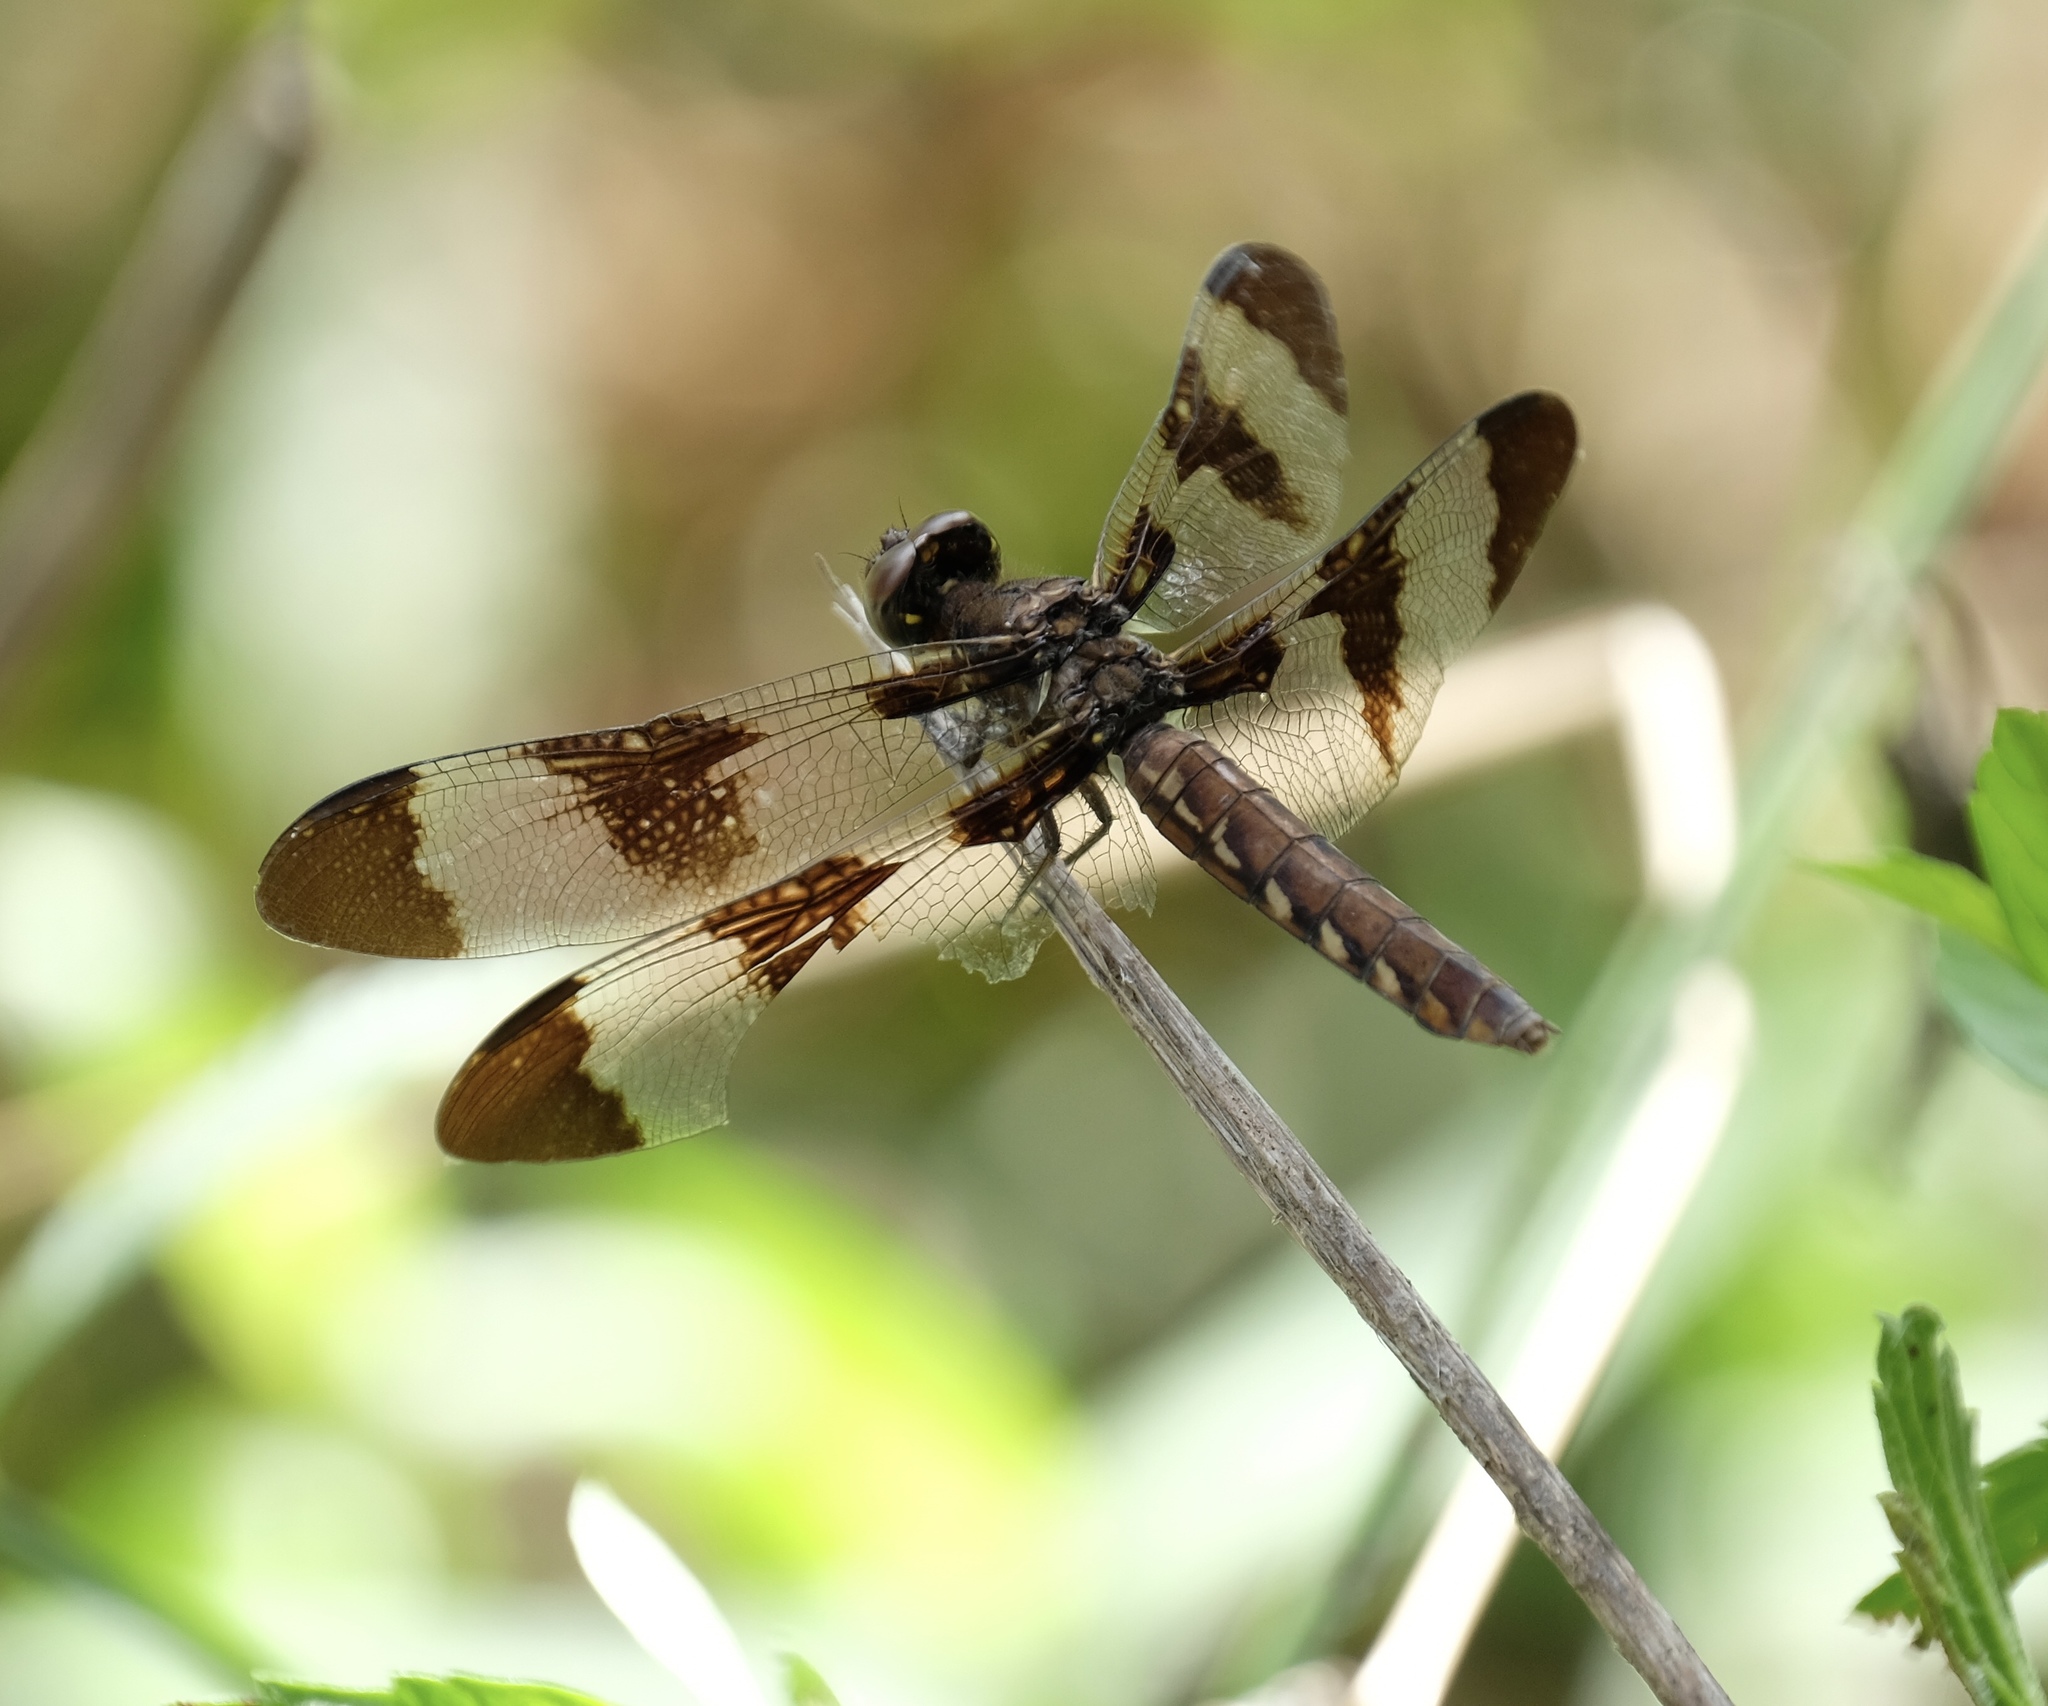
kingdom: Animalia
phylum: Arthropoda
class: Insecta
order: Odonata
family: Libellulidae
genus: Plathemis
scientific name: Plathemis lydia
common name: Common whitetail
